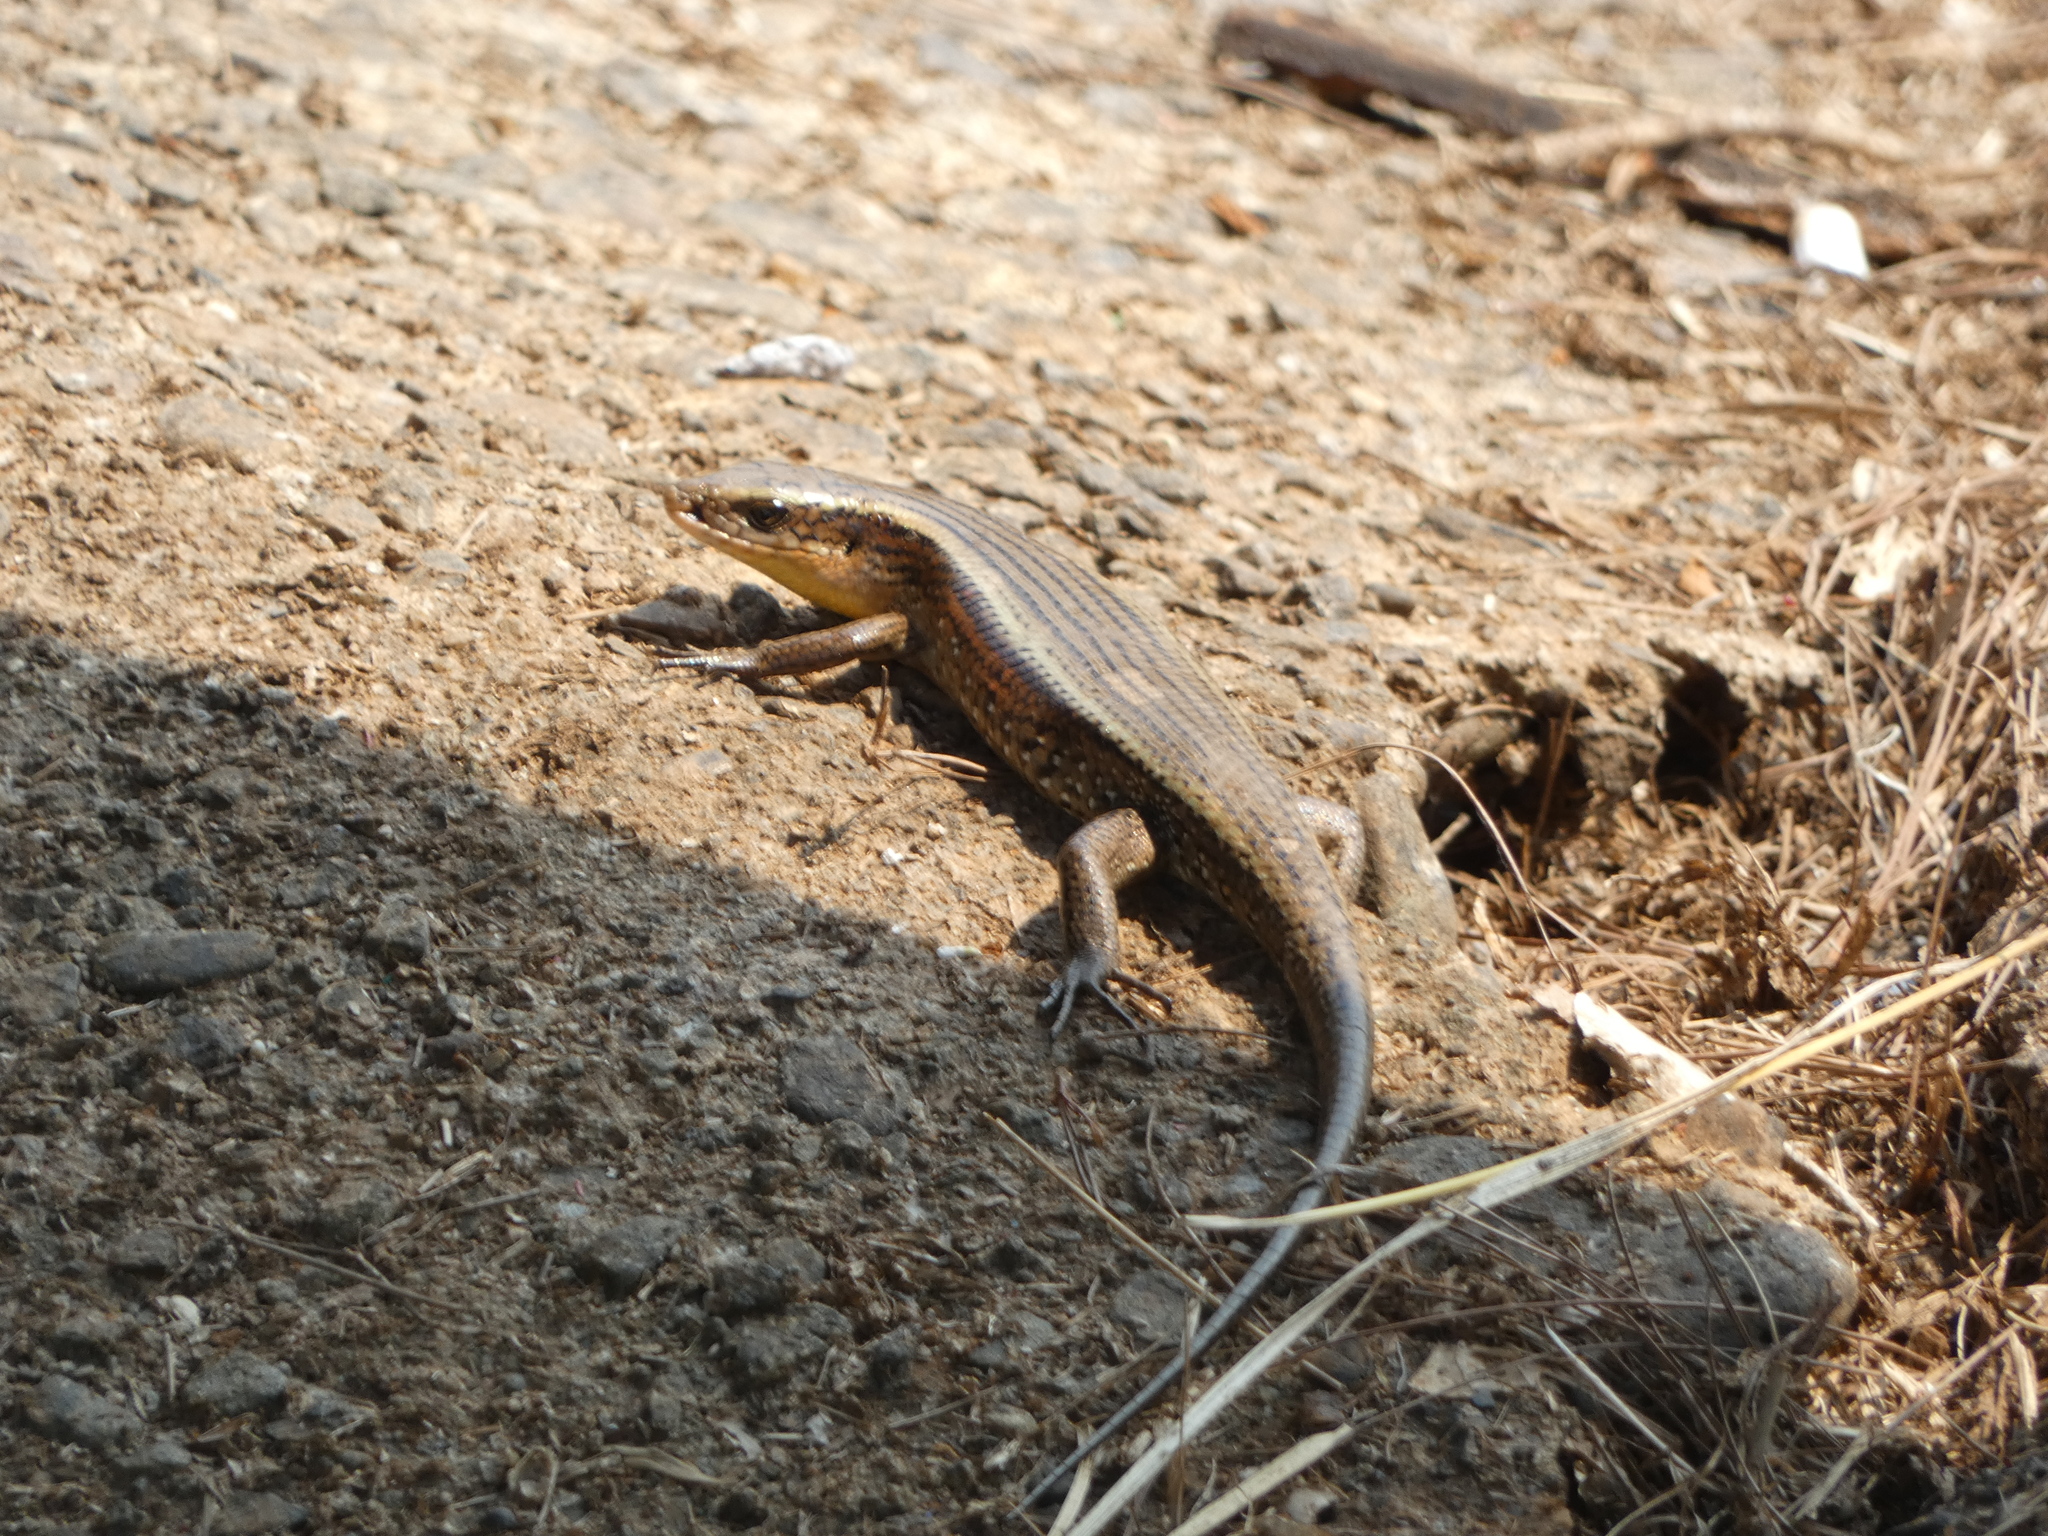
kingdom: Animalia
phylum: Chordata
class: Squamata
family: Scincidae
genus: Eutropis
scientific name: Eutropis multifasciata
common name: Common mabuya
